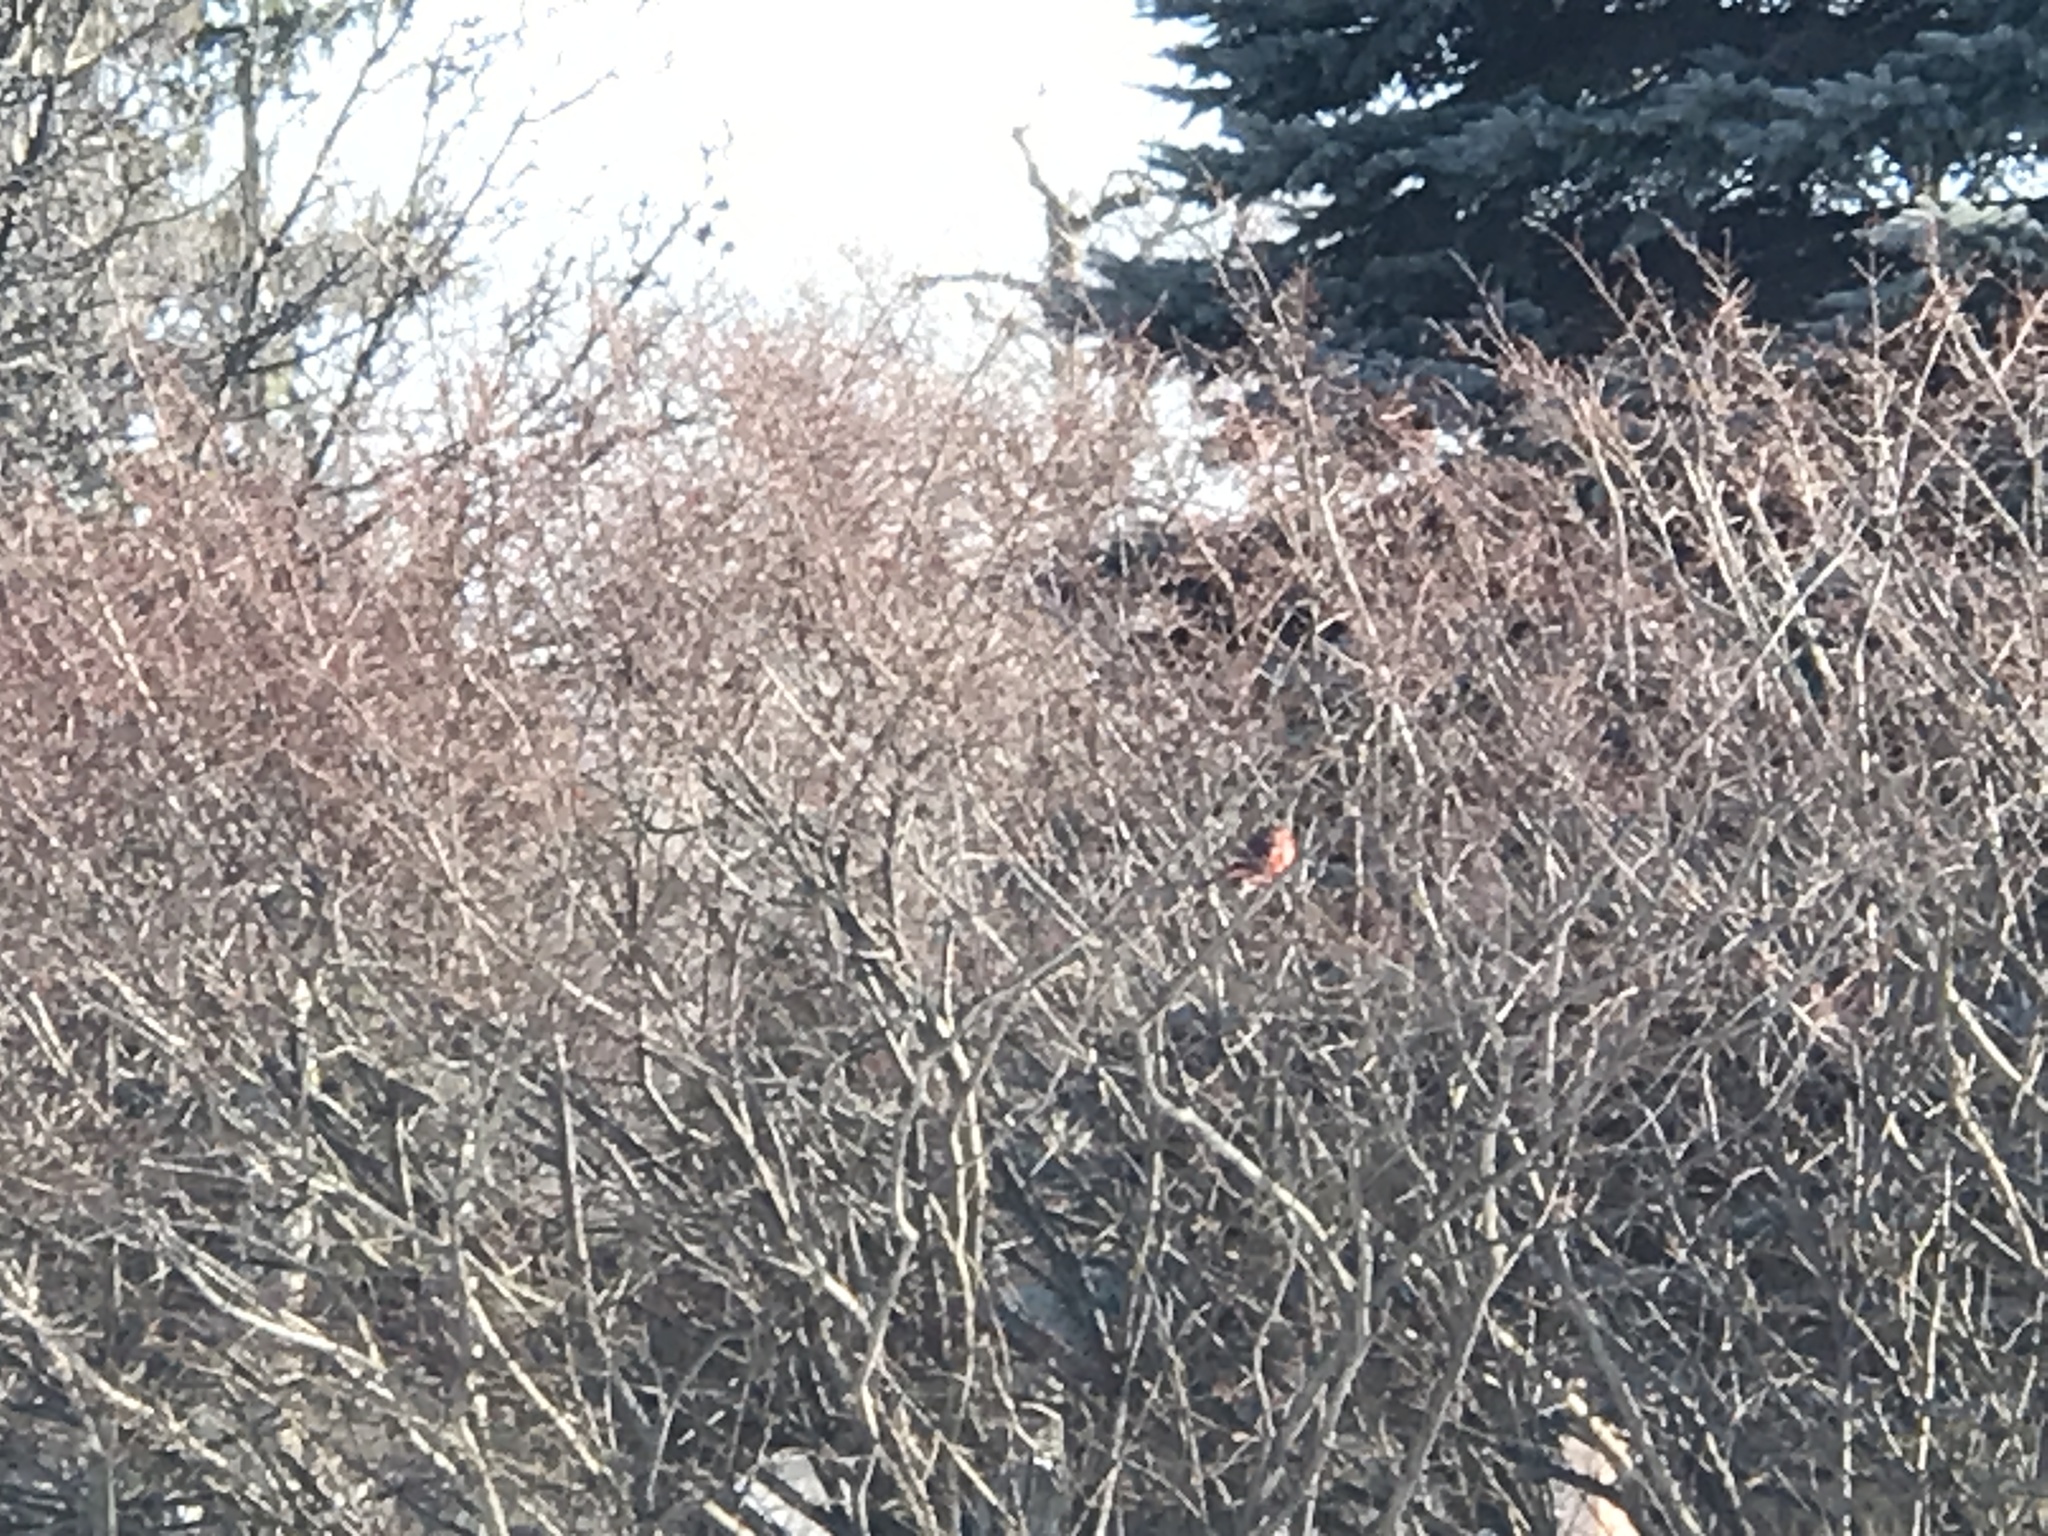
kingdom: Animalia
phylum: Chordata
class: Aves
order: Passeriformes
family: Cardinalidae
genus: Cardinalis
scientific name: Cardinalis cardinalis
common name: Northern cardinal
